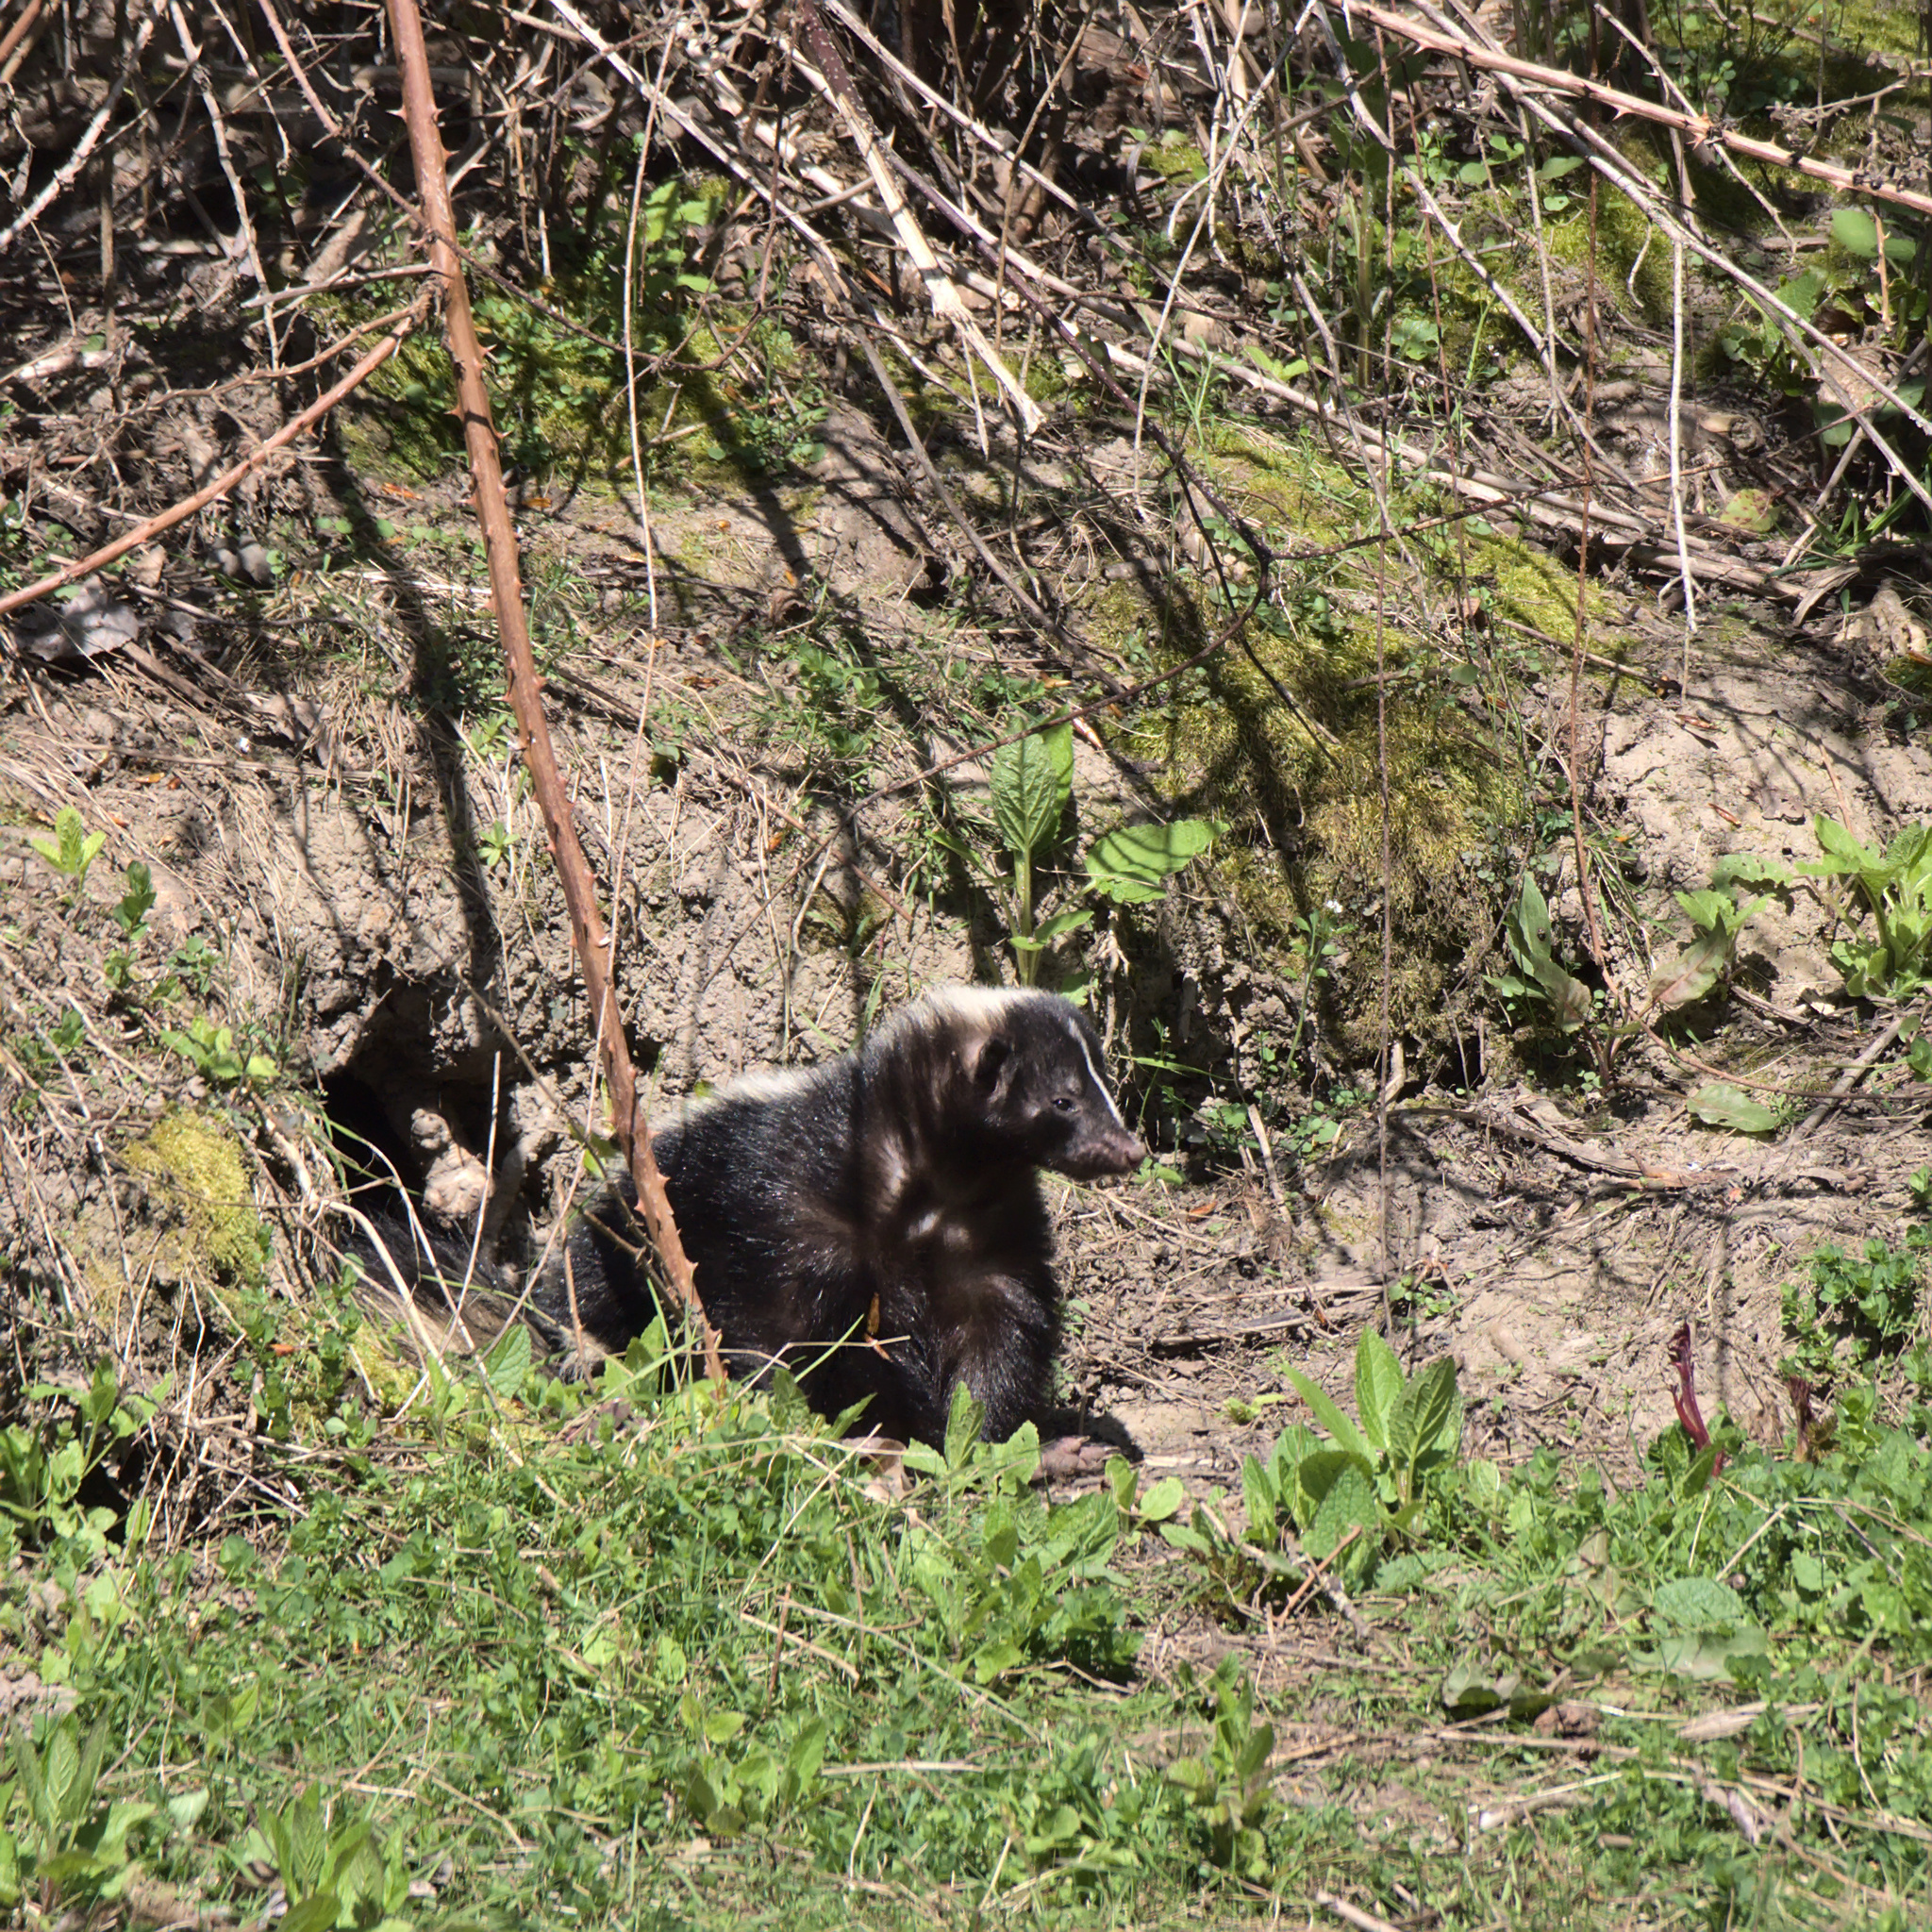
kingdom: Animalia
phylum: Chordata
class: Mammalia
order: Carnivora
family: Mephitidae
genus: Mephitis
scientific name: Mephitis mephitis
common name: Striped skunk
